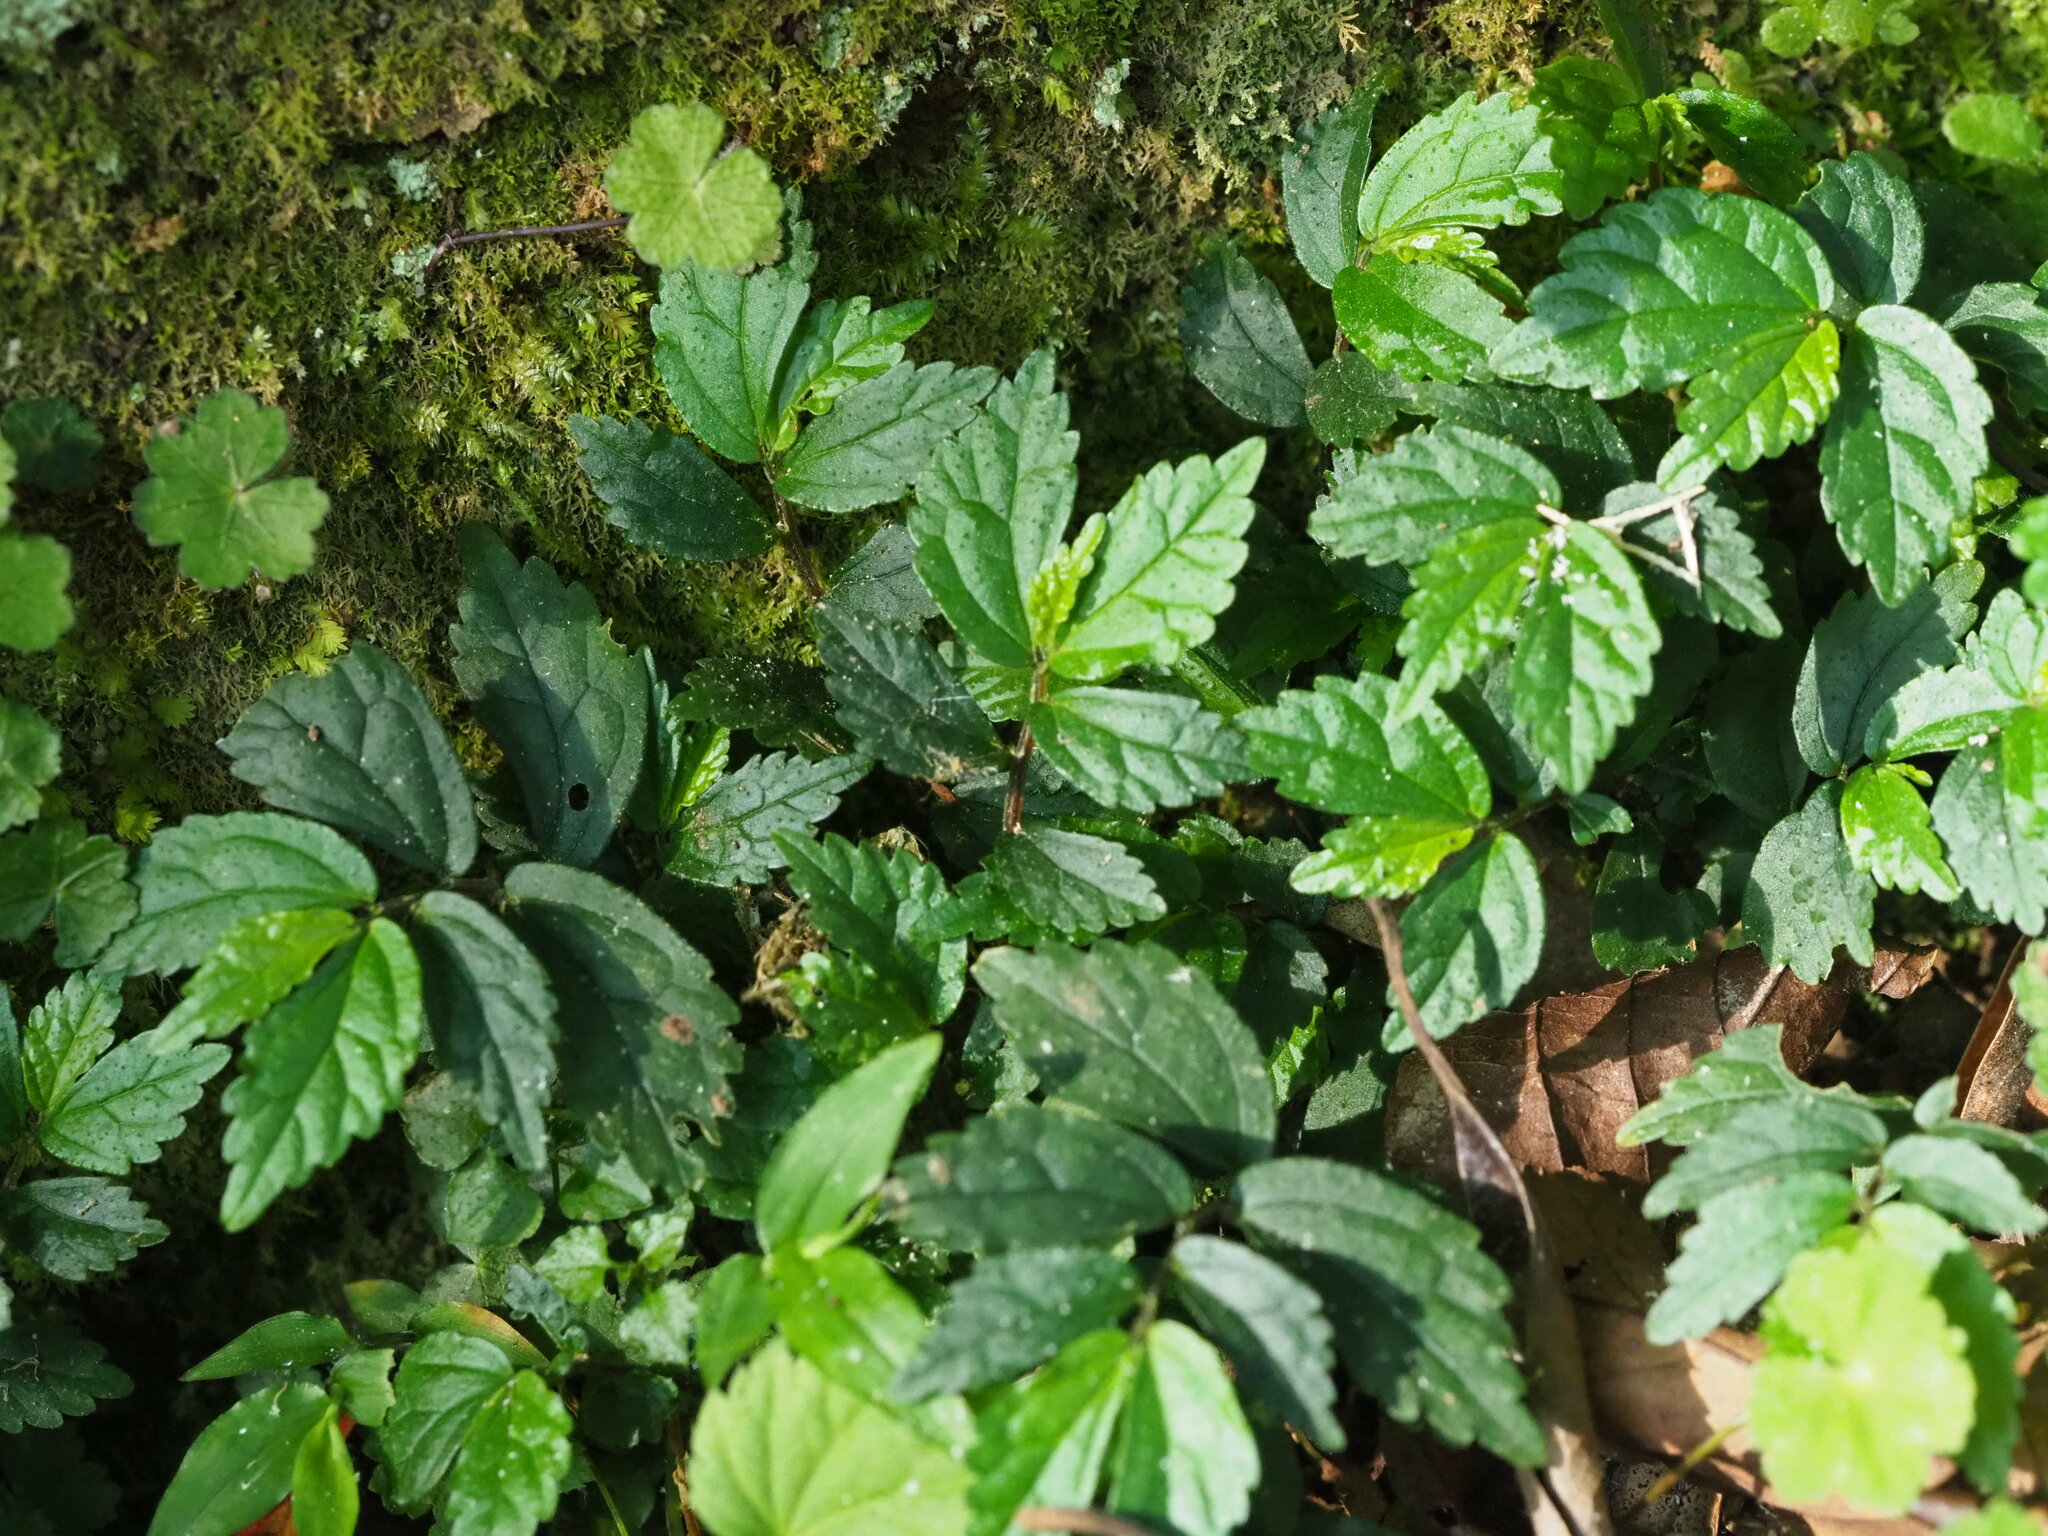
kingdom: Plantae
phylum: Tracheophyta
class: Magnoliopsida
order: Rosales
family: Urticaceae
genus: Elatostema
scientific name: Elatostema radicans
